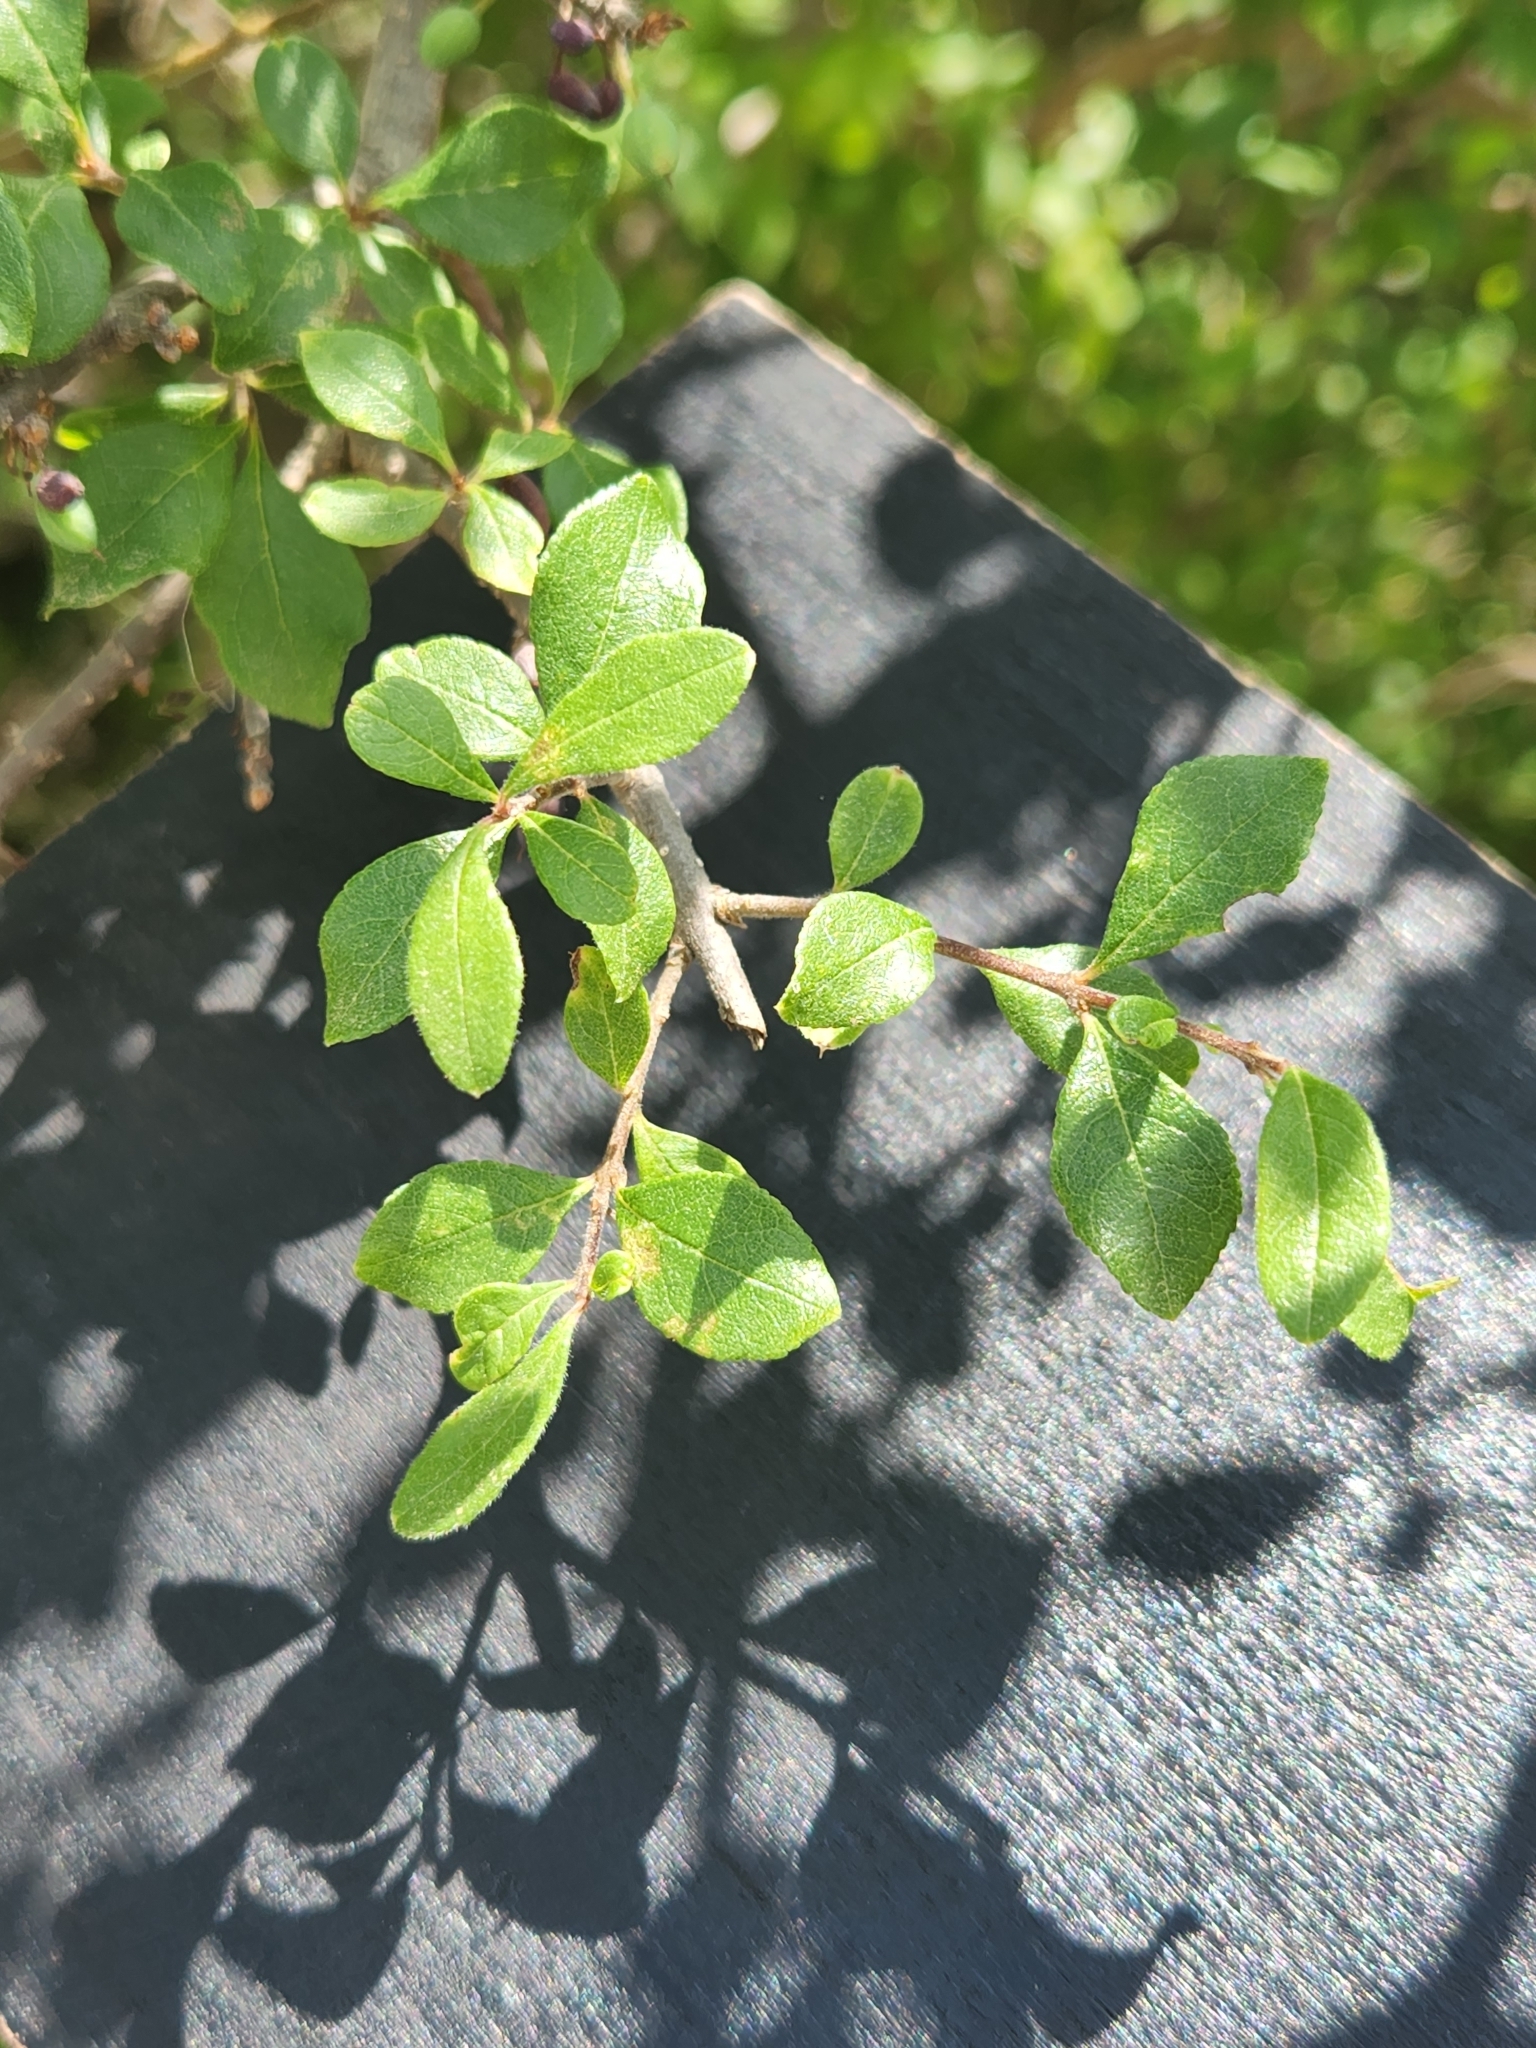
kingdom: Plantae
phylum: Tracheophyta
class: Magnoliopsida
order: Lamiales
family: Oleaceae
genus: Forestiera
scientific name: Forestiera pubescens
